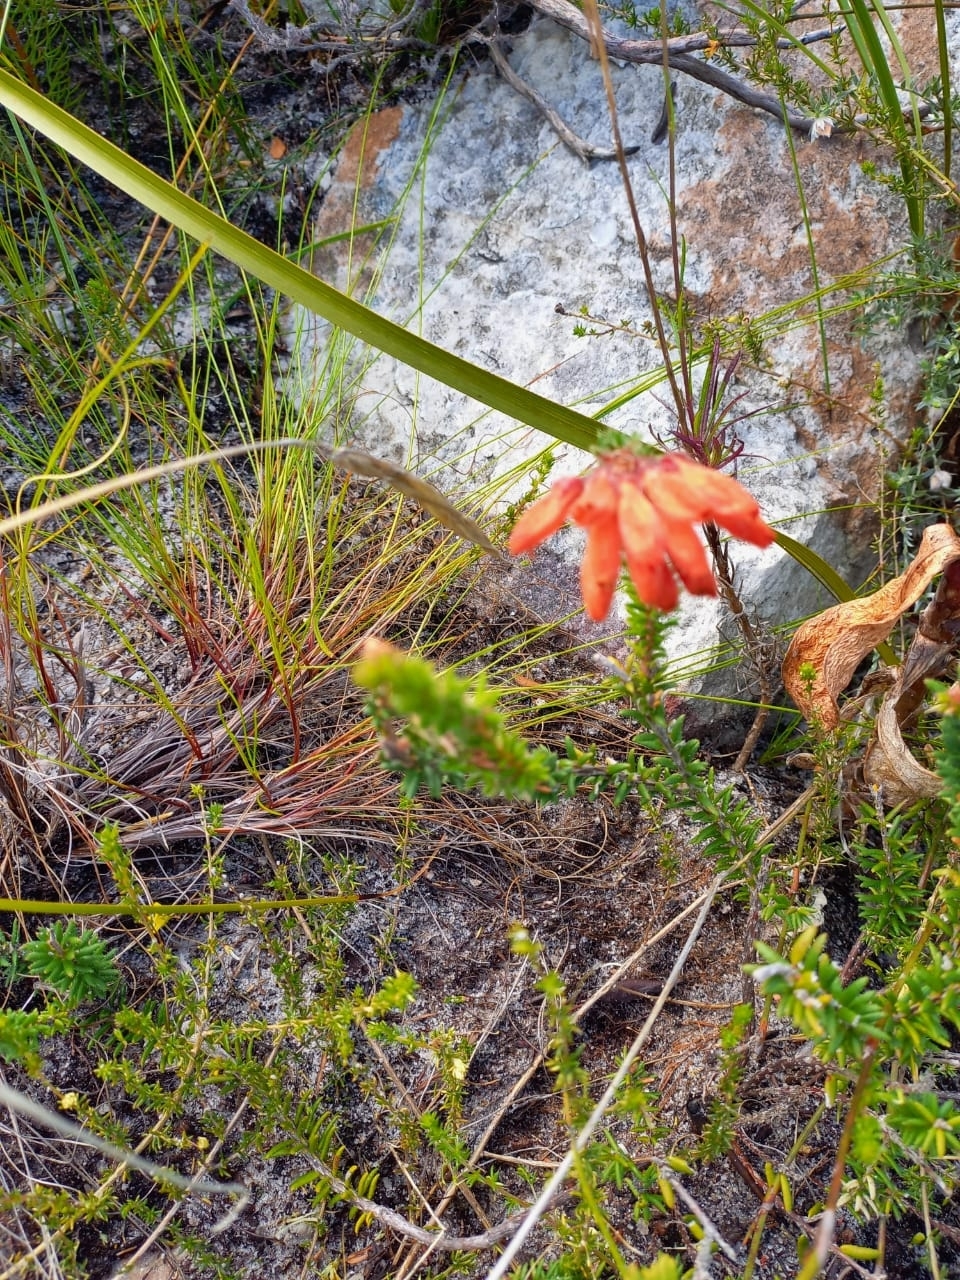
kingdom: Plantae
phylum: Tracheophyta
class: Magnoliopsida
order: Ericales
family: Ericaceae
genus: Erica
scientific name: Erica cerinthoides
